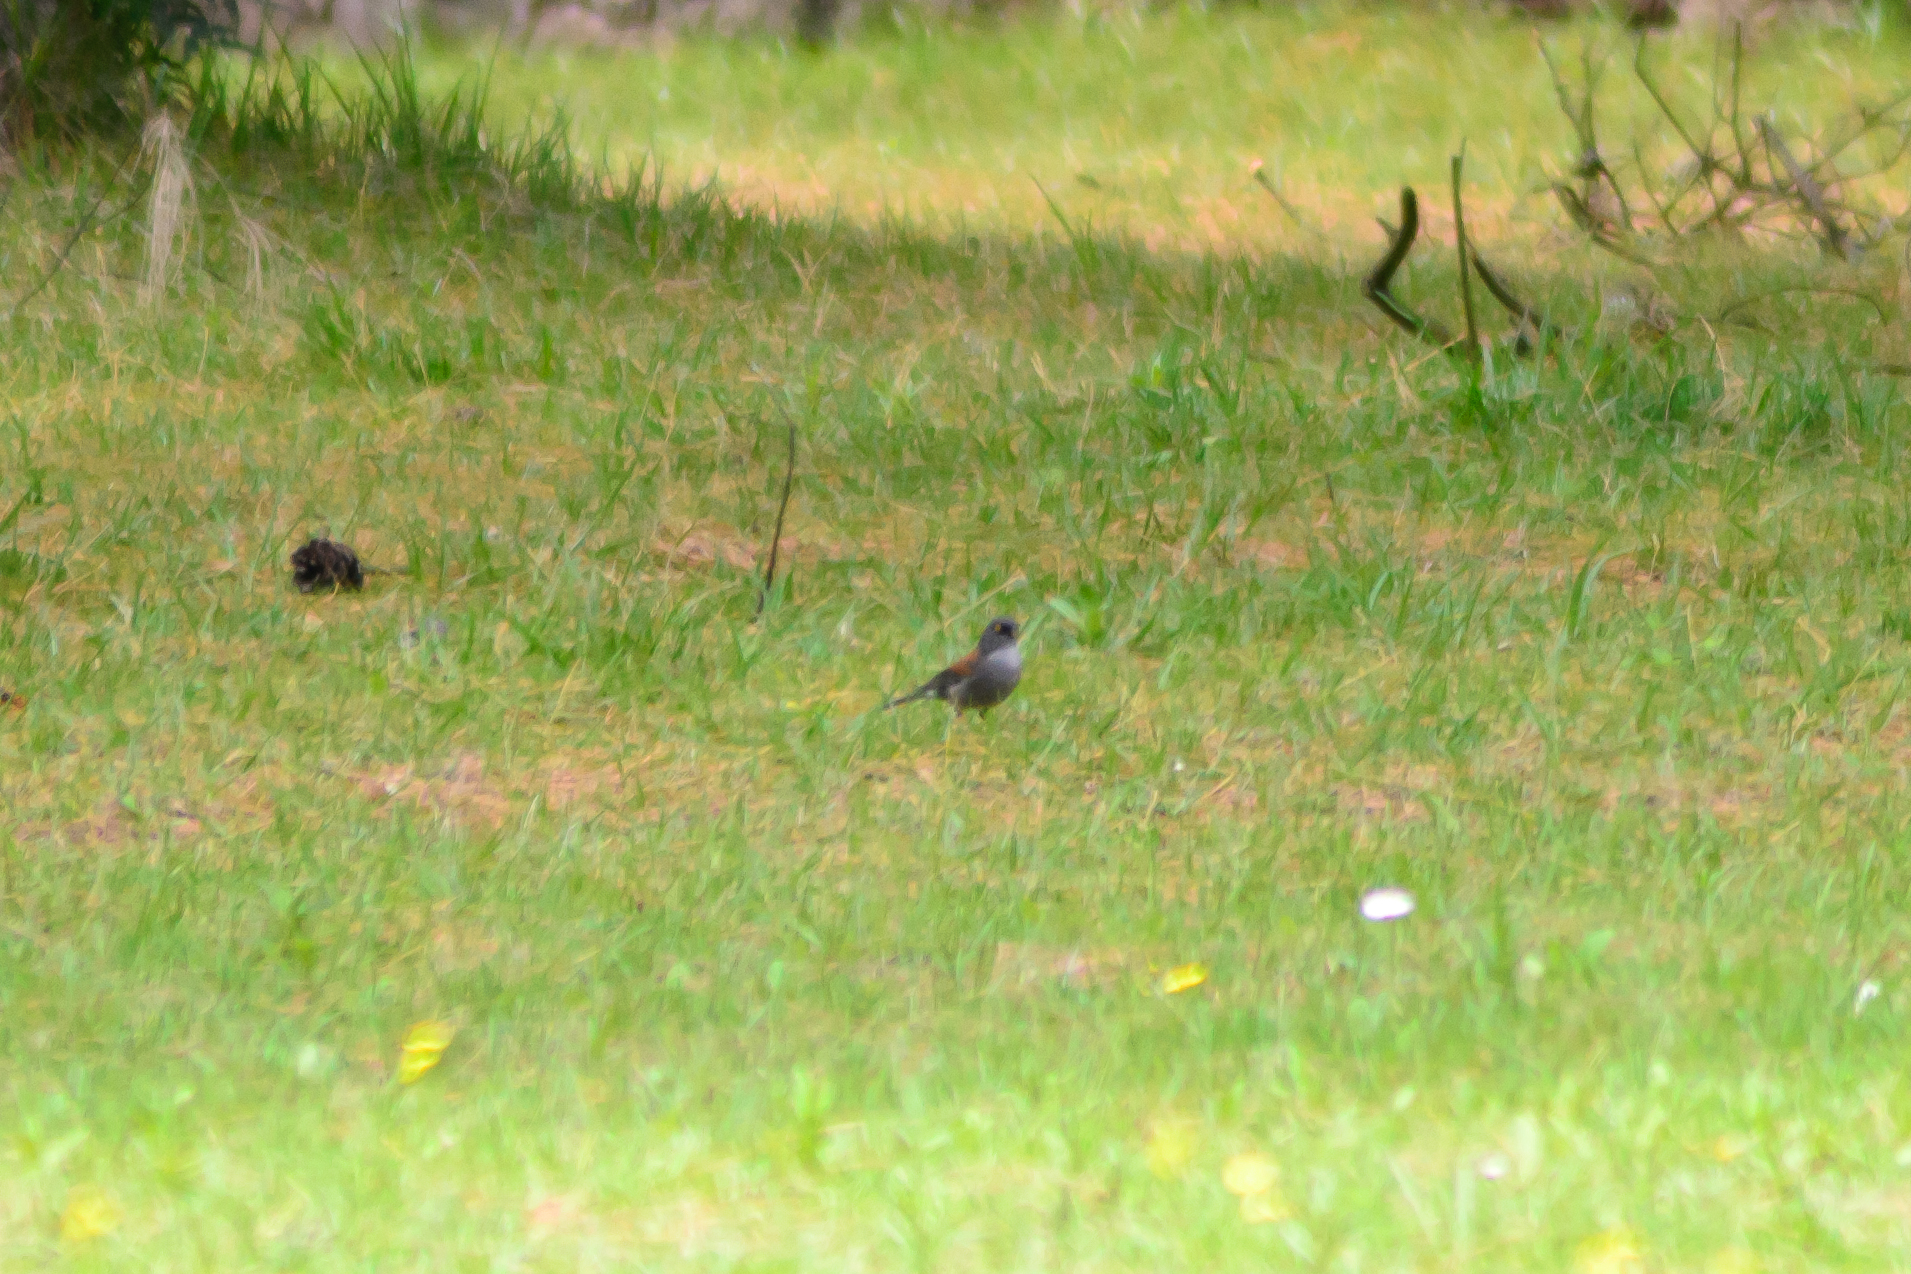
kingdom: Animalia
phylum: Chordata
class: Aves
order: Passeriformes
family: Passerellidae
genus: Junco
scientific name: Junco phaeonotus
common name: Yellow-eyed junco
